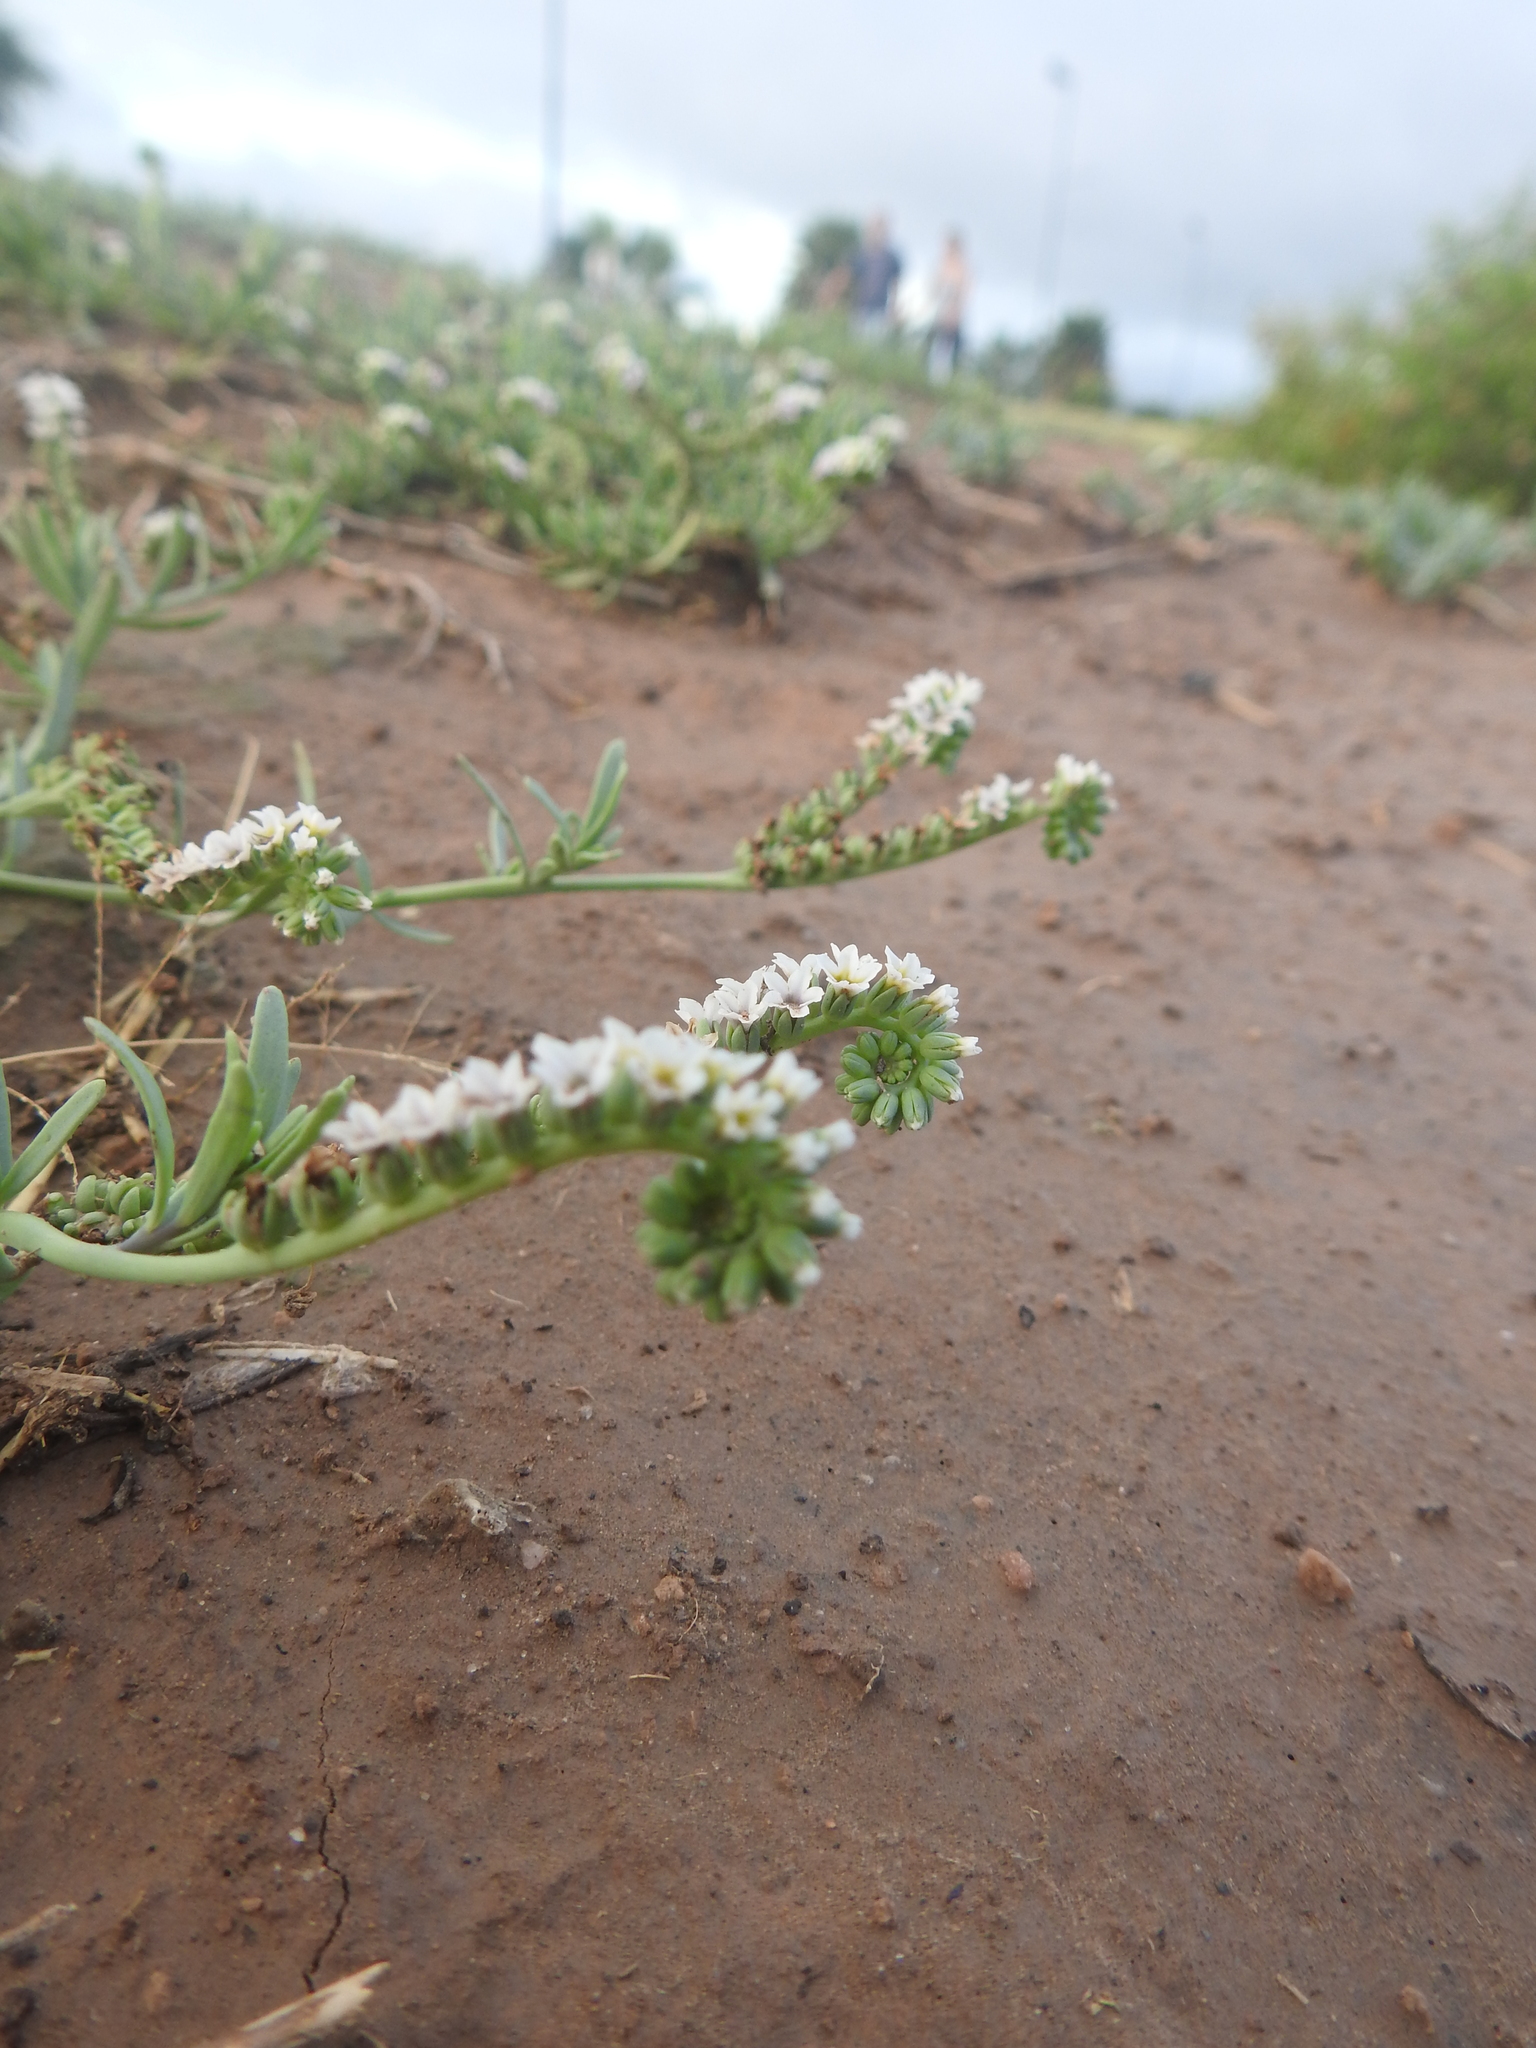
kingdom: Plantae
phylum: Tracheophyta
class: Magnoliopsida
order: Boraginales
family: Heliotropiaceae
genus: Heliotropium
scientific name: Heliotropium curassavicum
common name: Seaside heliotrope
